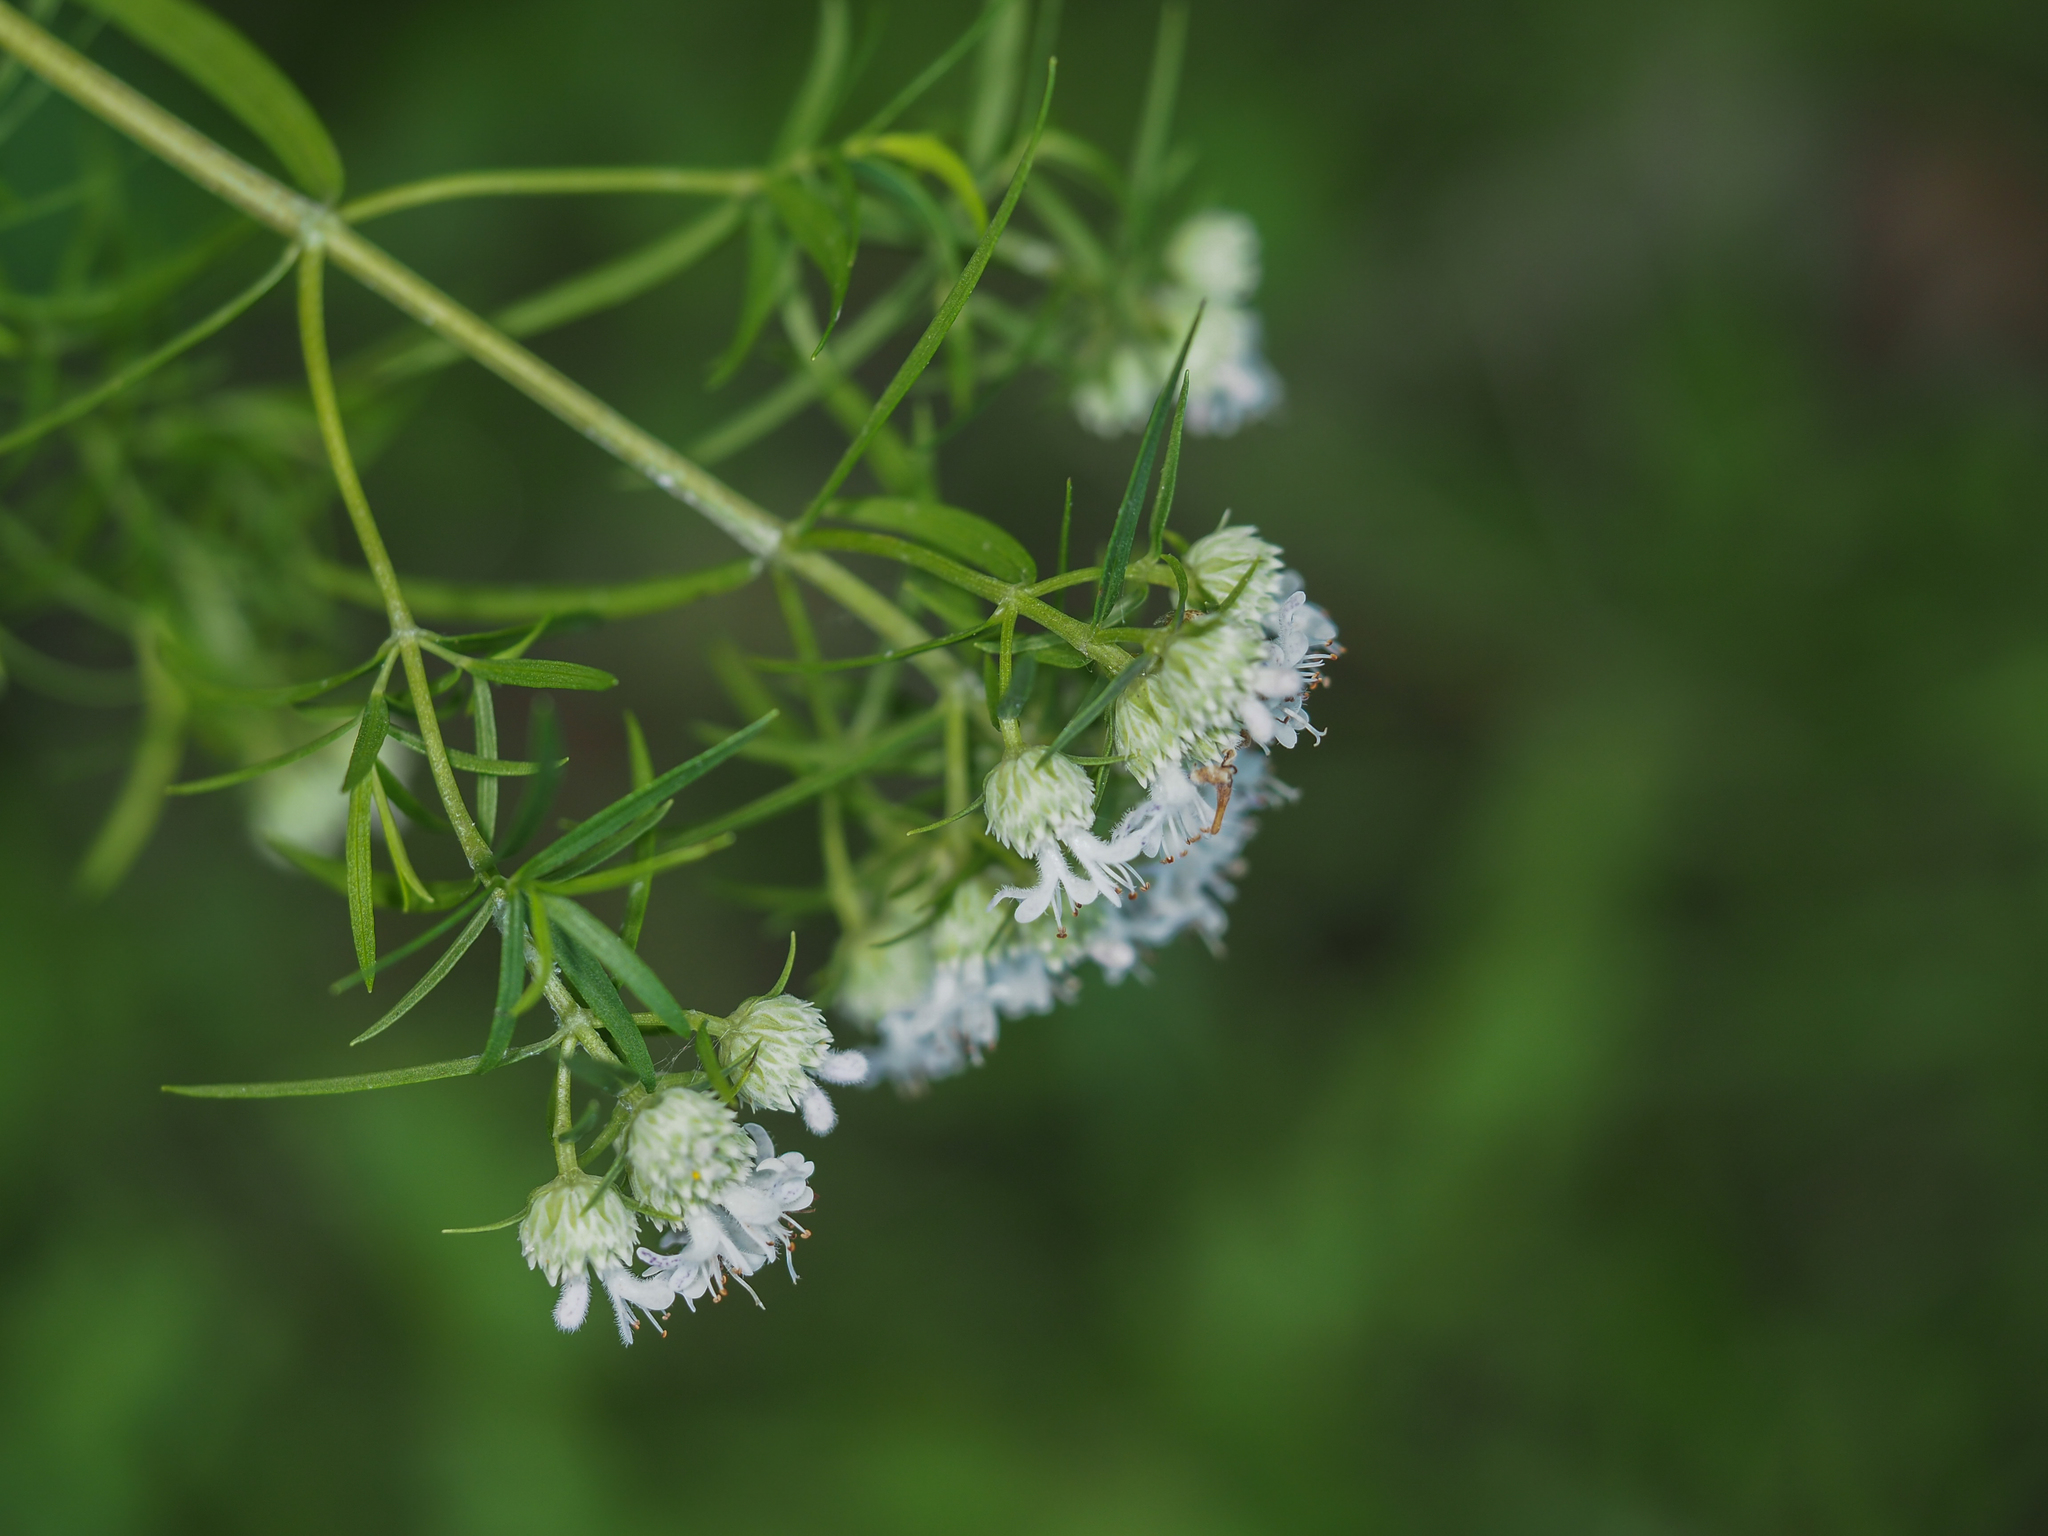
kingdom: Plantae
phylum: Tracheophyta
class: Magnoliopsida
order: Lamiales
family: Lamiaceae
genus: Pycnanthemum
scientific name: Pycnanthemum tenuifolium
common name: Narrow-leaf mountain-mint
